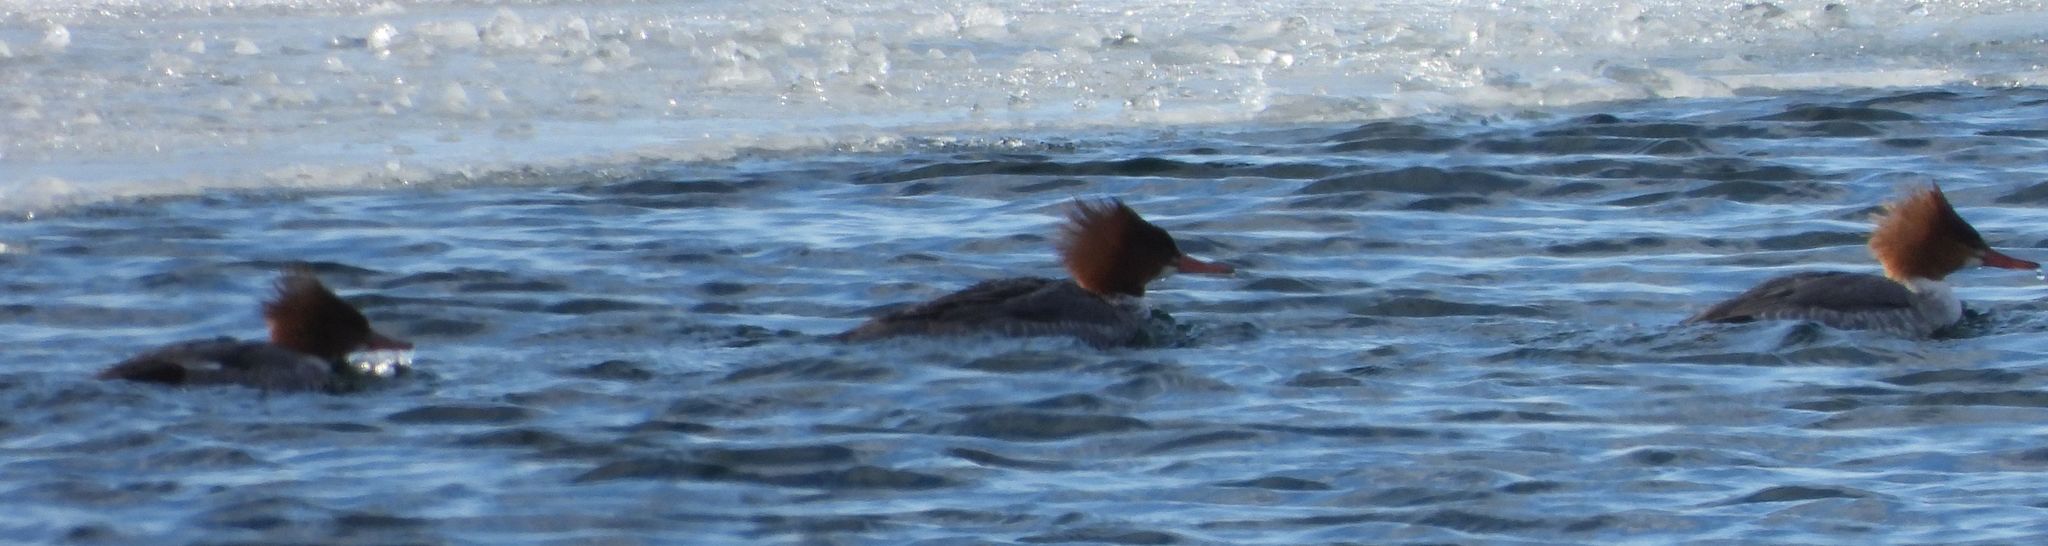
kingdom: Animalia
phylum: Chordata
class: Aves
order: Anseriformes
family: Anatidae
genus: Mergus
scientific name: Mergus merganser
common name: Common merganser
